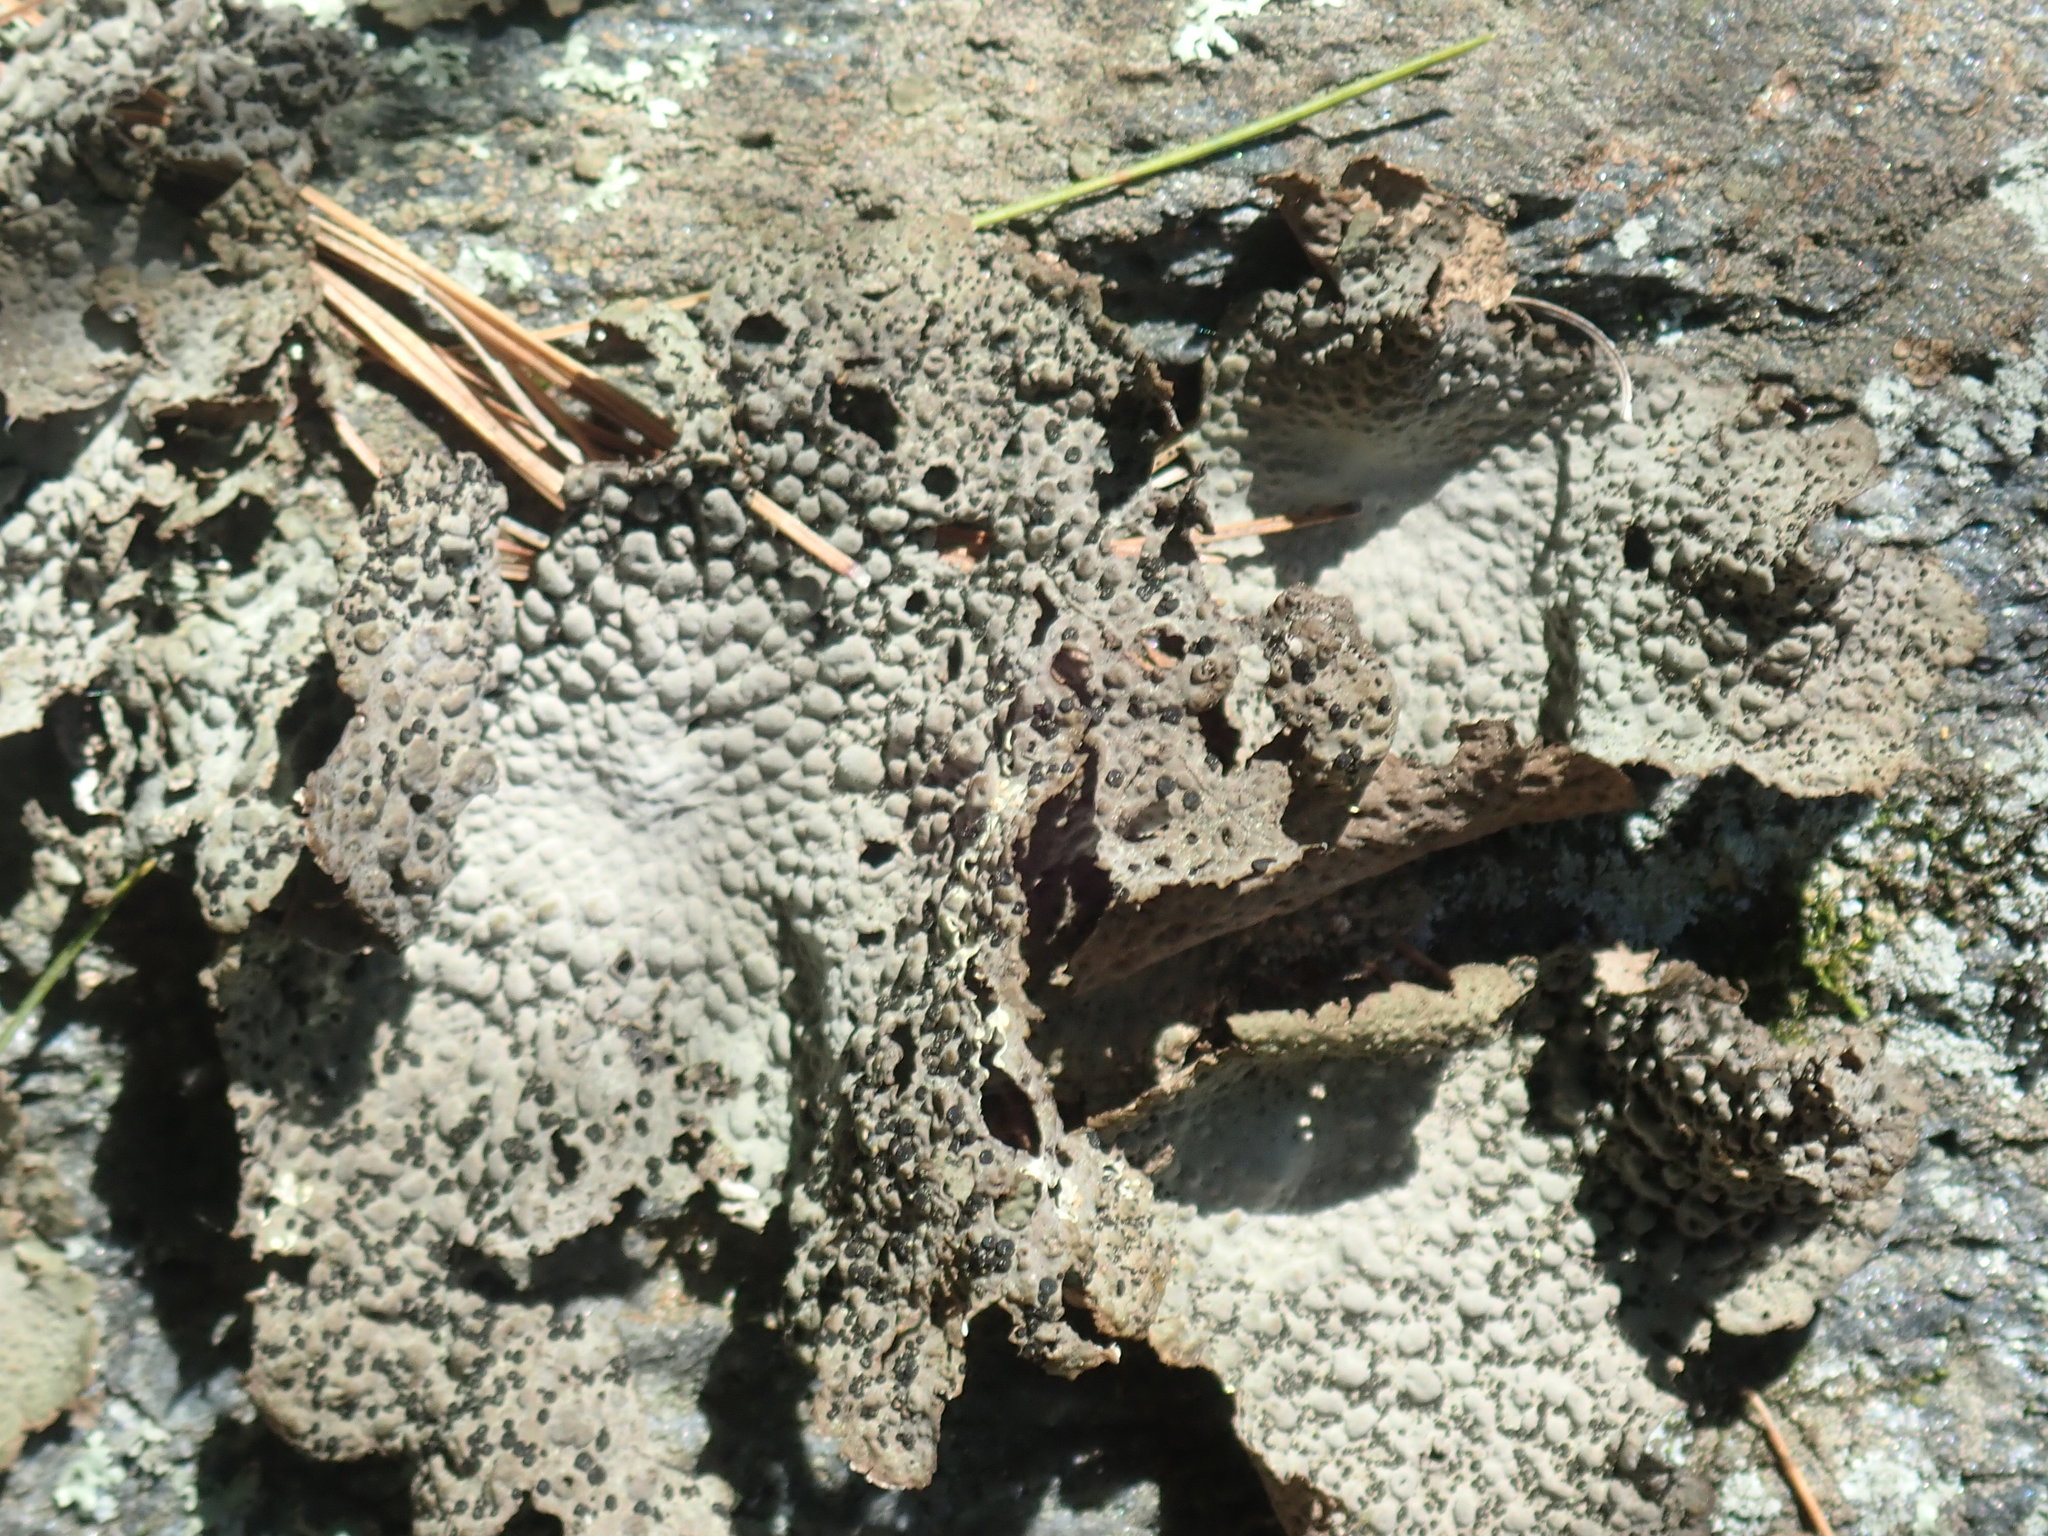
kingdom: Fungi
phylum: Ascomycota
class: Lecanoromycetes
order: Umbilicariales
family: Umbilicariaceae
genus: Lasallia
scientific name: Lasallia papulosa
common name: Common toadskin lichen
